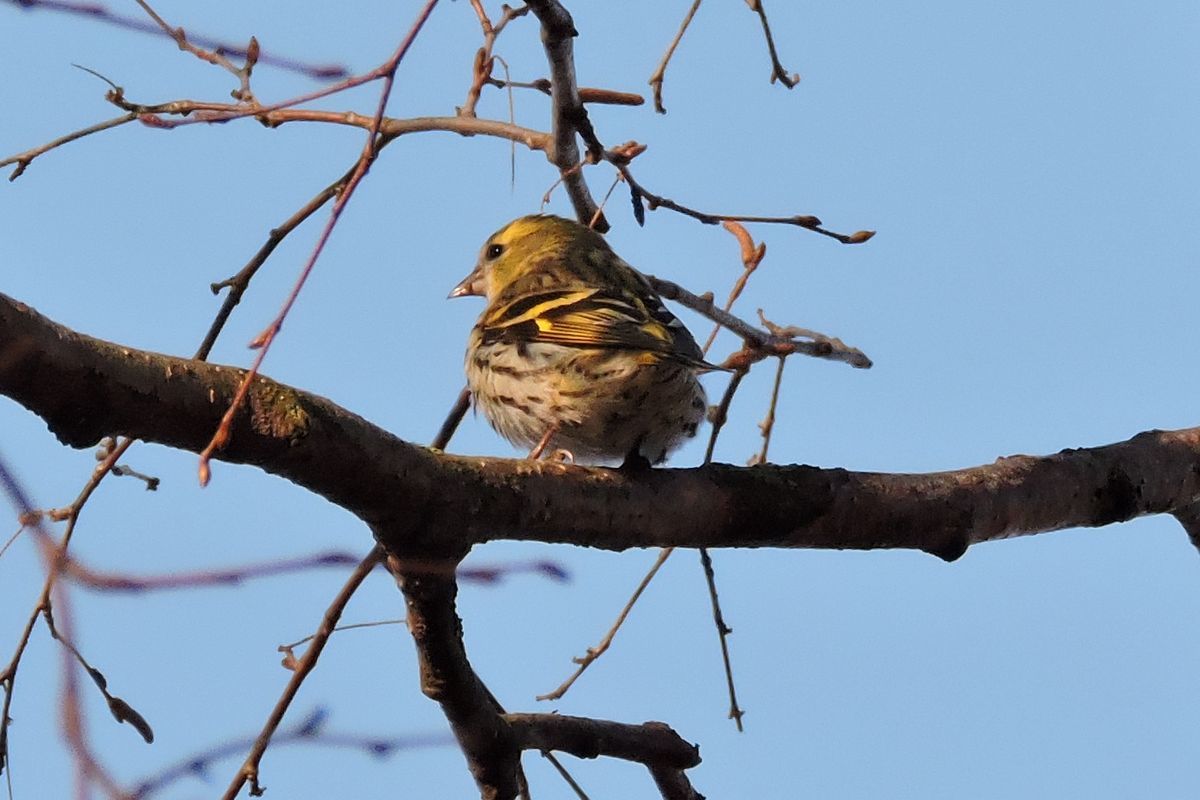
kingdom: Animalia
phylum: Chordata
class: Aves
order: Passeriformes
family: Fringillidae
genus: Spinus
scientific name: Spinus spinus
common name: Eurasian siskin
